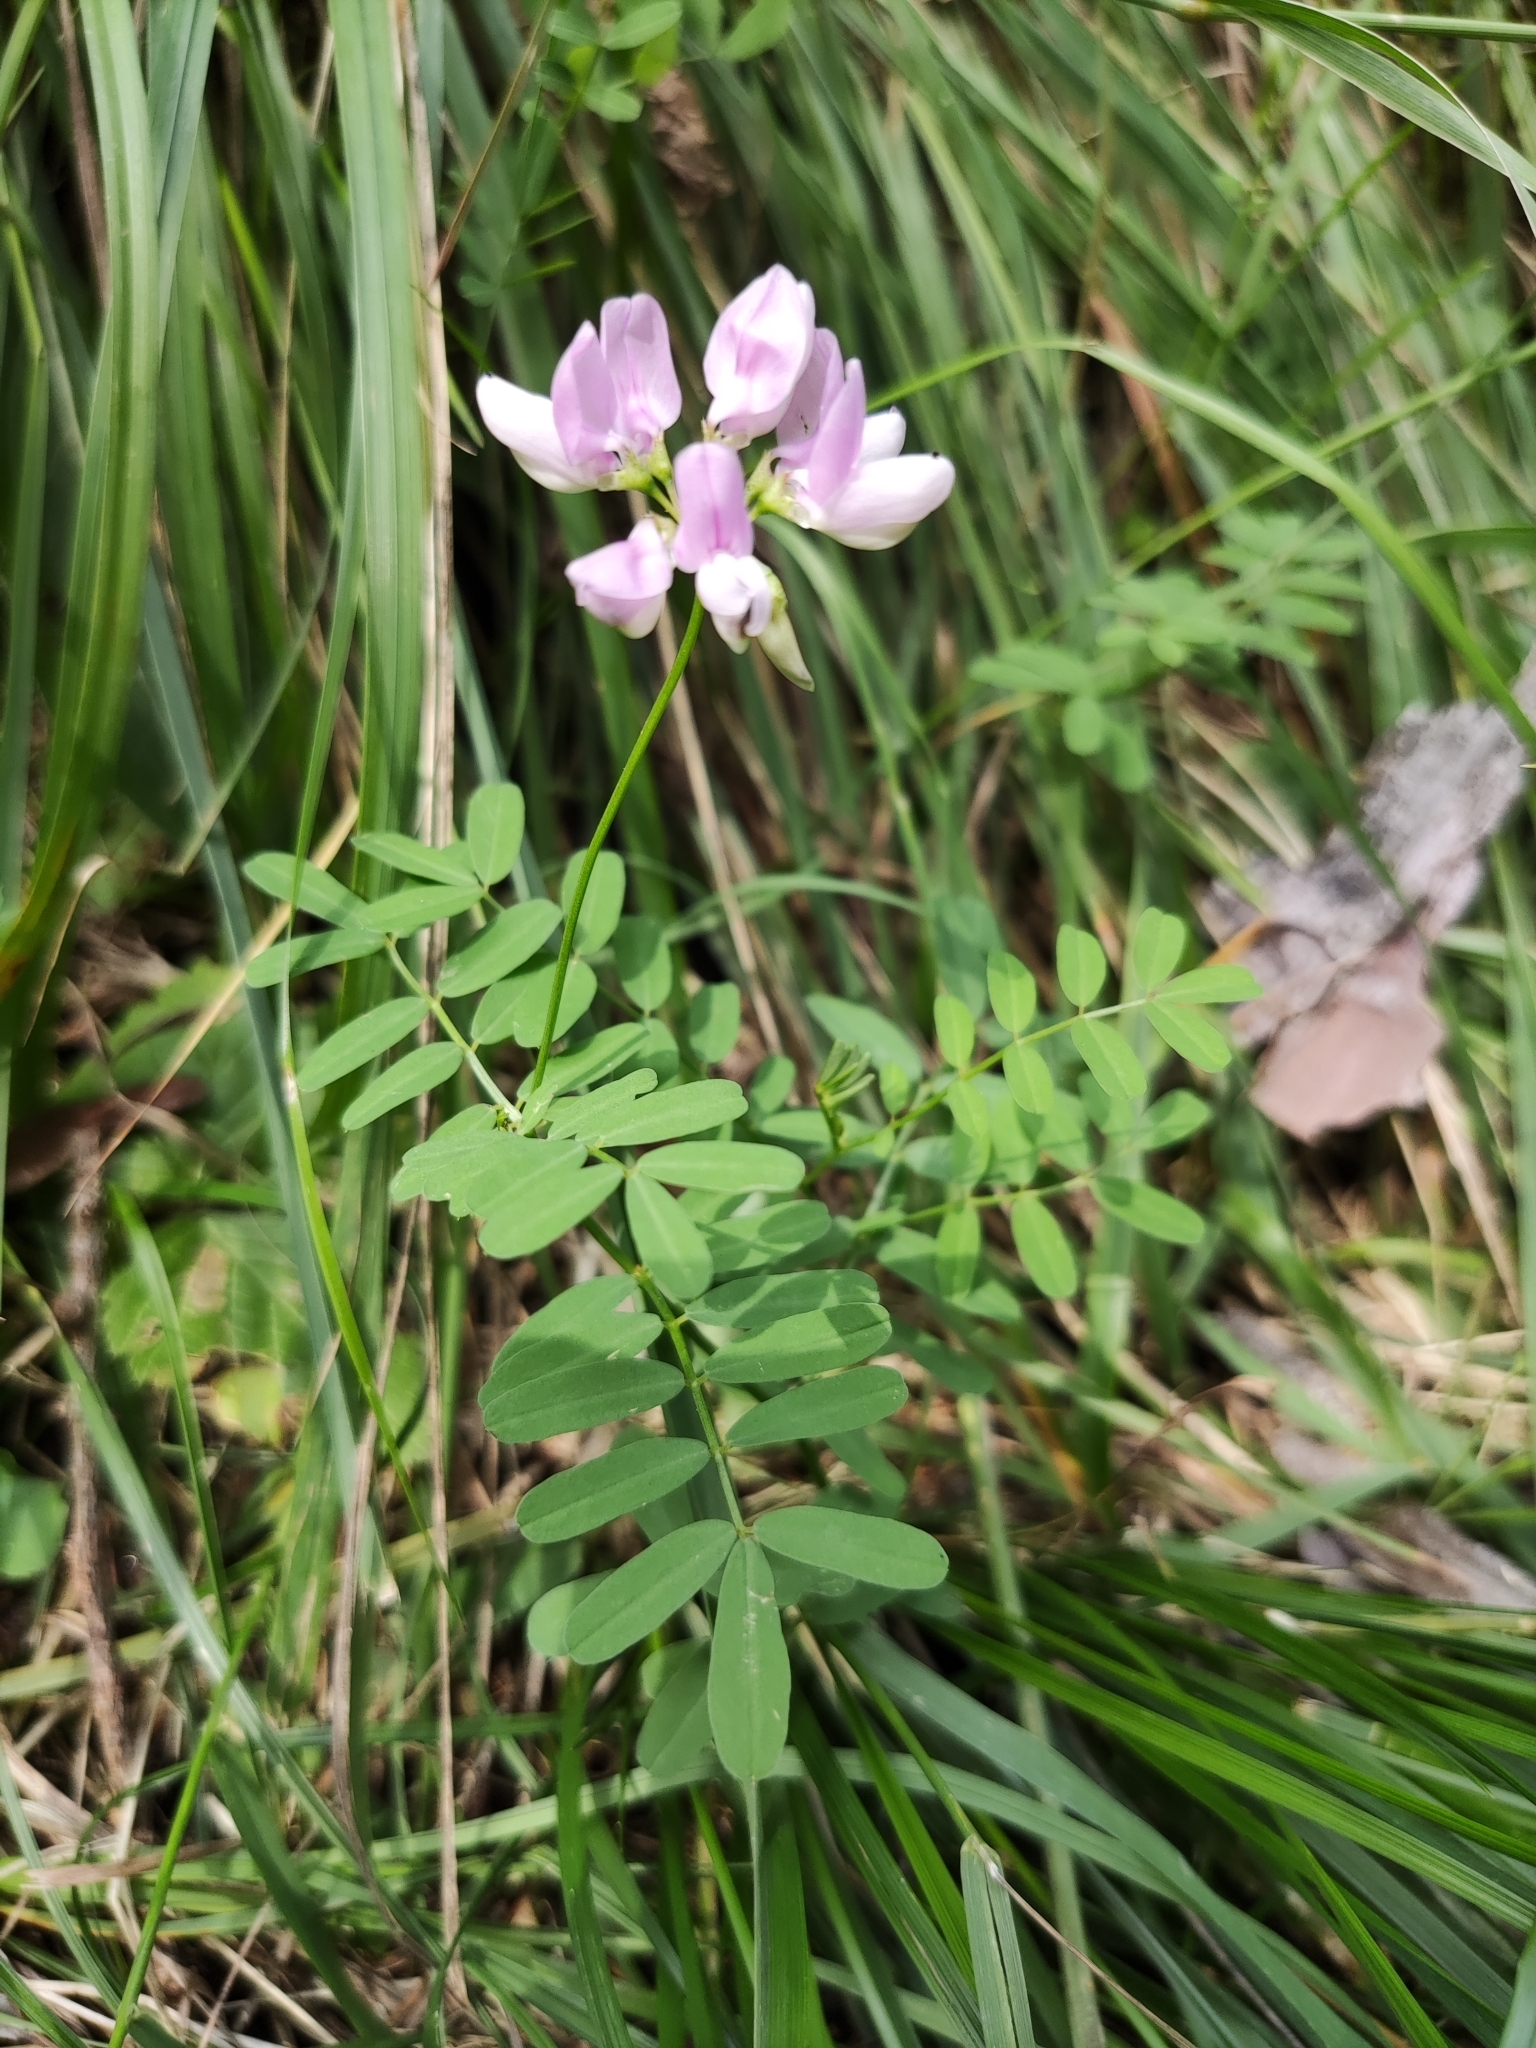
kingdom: Plantae
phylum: Tracheophyta
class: Magnoliopsida
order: Fabales
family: Fabaceae
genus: Coronilla
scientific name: Coronilla varia
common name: Crownvetch
